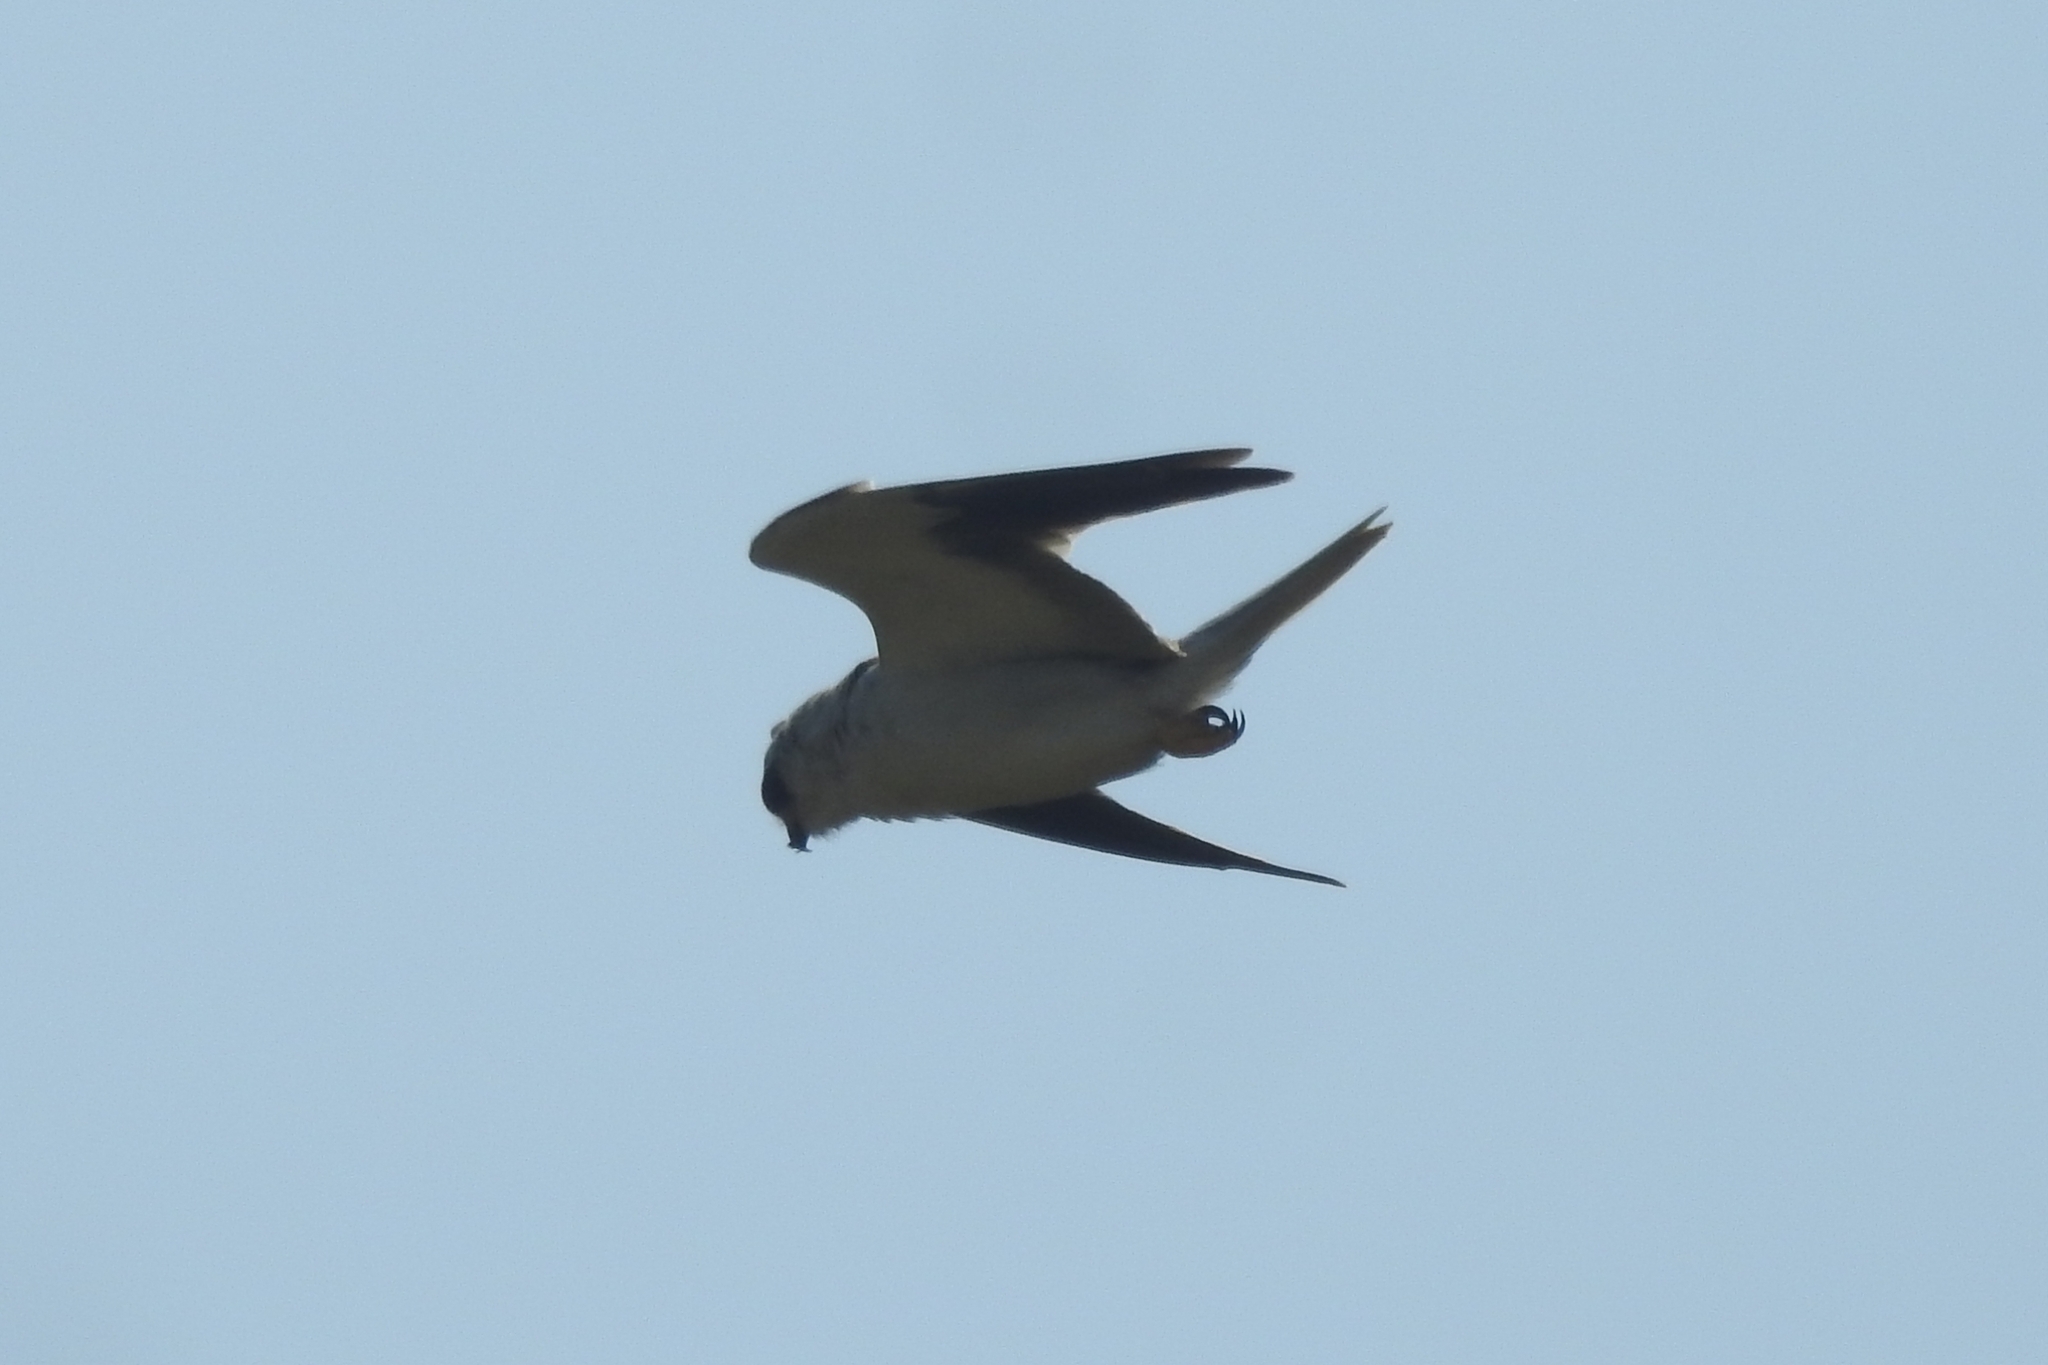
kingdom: Animalia
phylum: Chordata
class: Aves
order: Accipitriformes
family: Accipitridae
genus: Elanus
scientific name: Elanus caeruleus
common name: Black-winged kite
